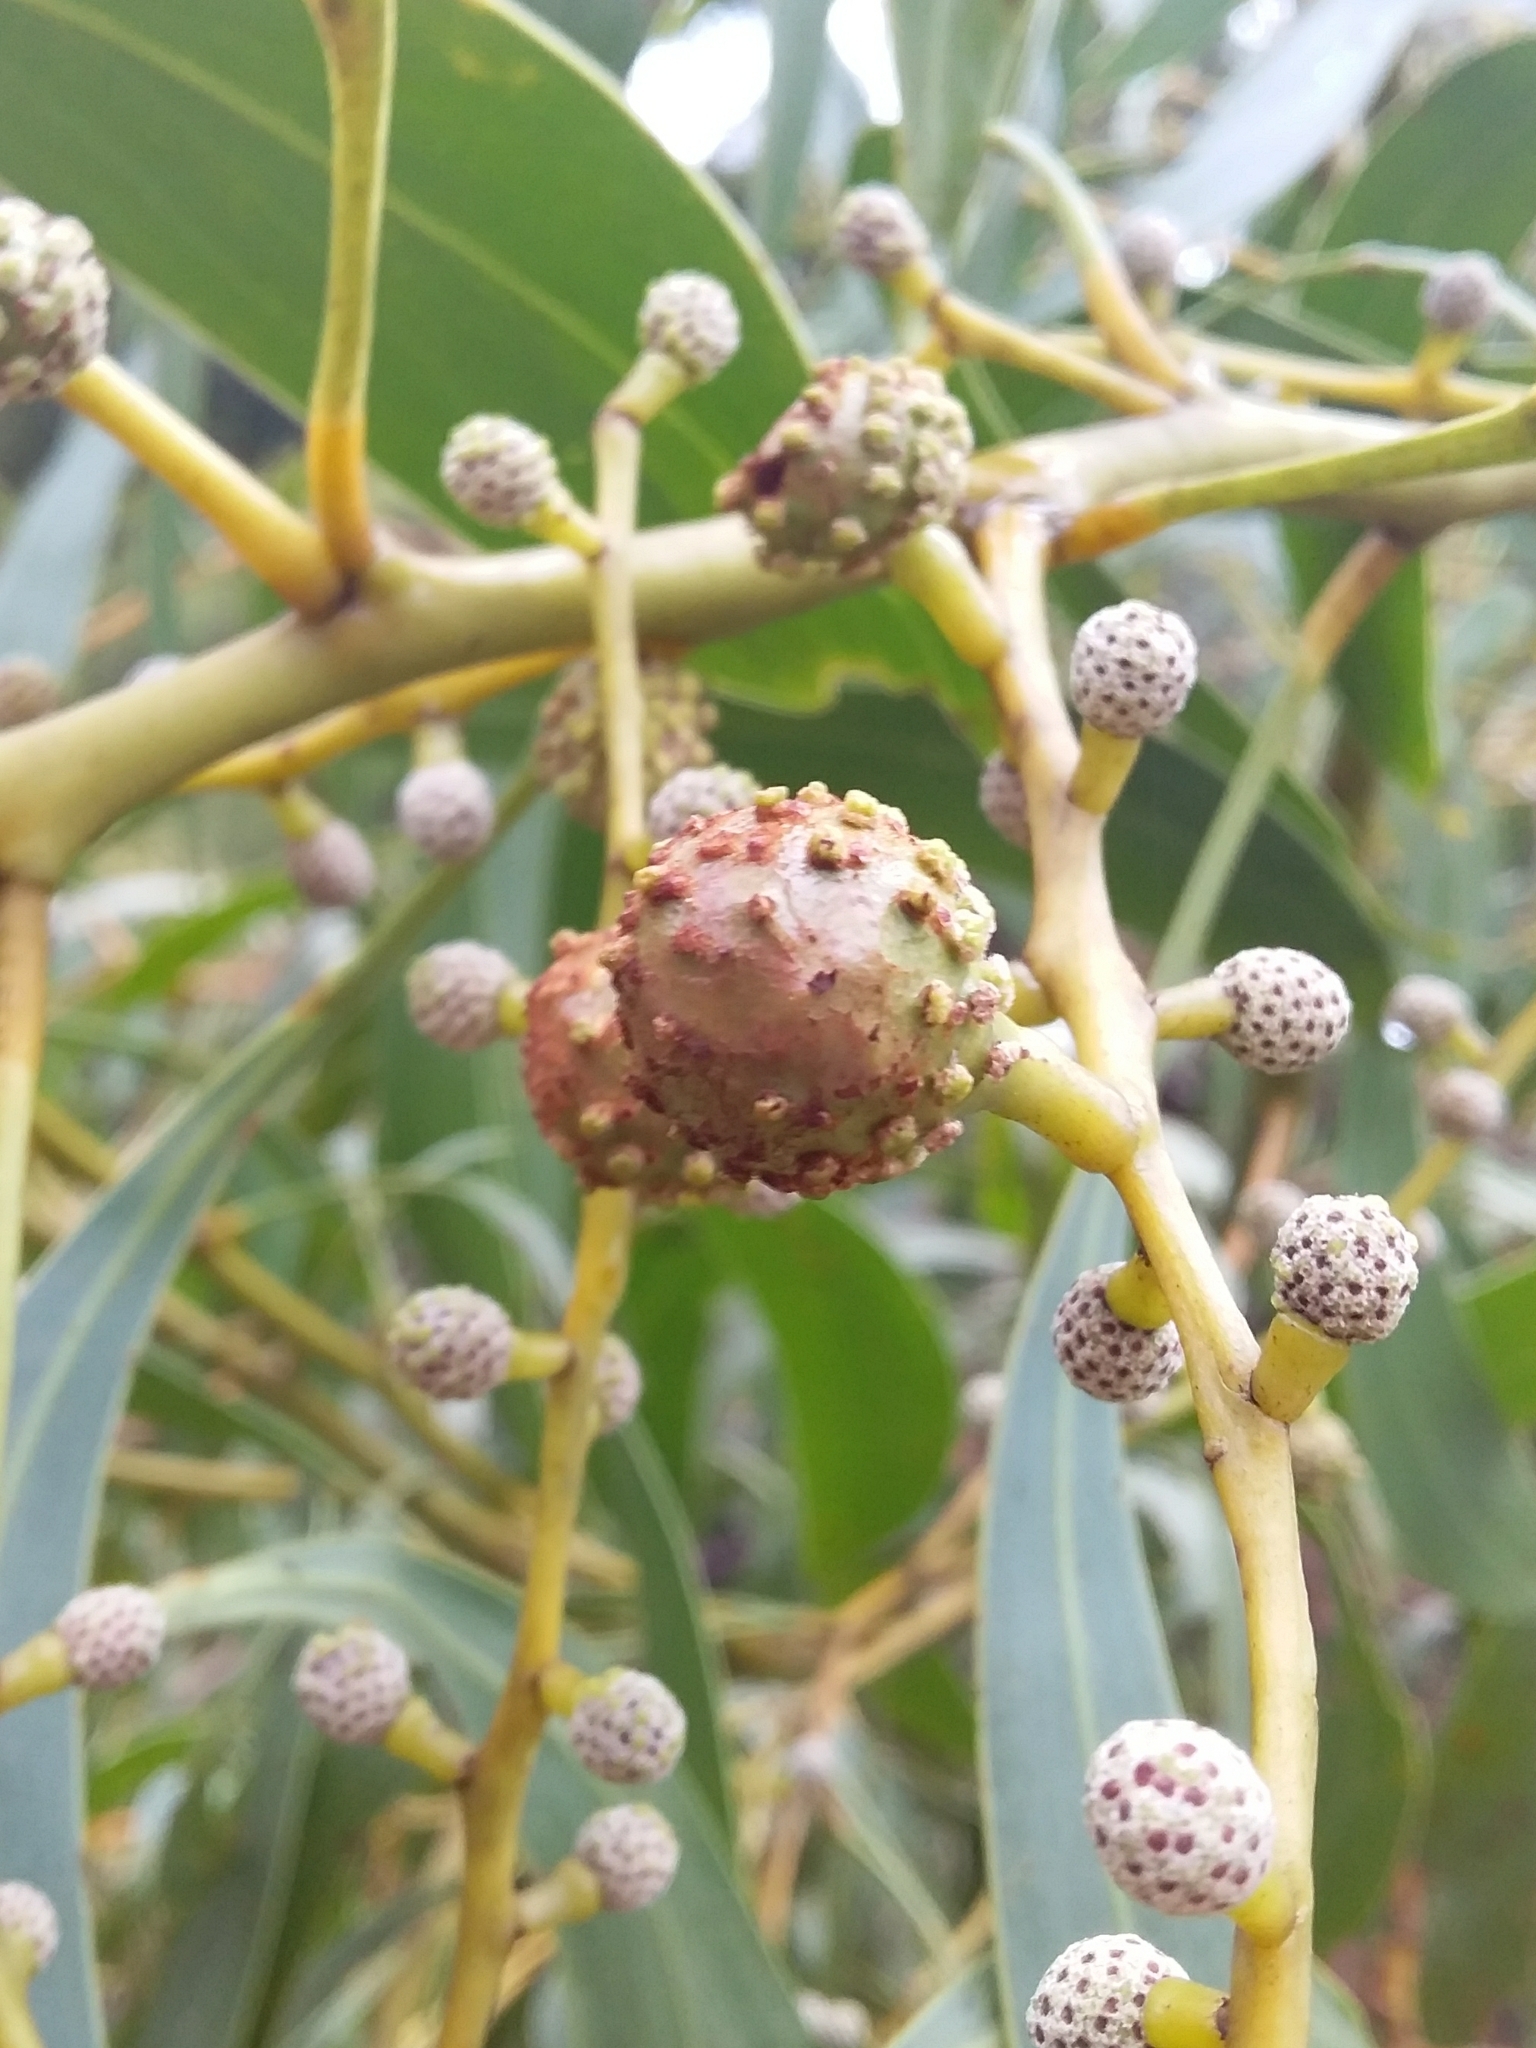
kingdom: Animalia
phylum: Arthropoda
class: Insecta
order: Hymenoptera
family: Pteromalidae
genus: Trichilogaster
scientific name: Trichilogaster signiventris
